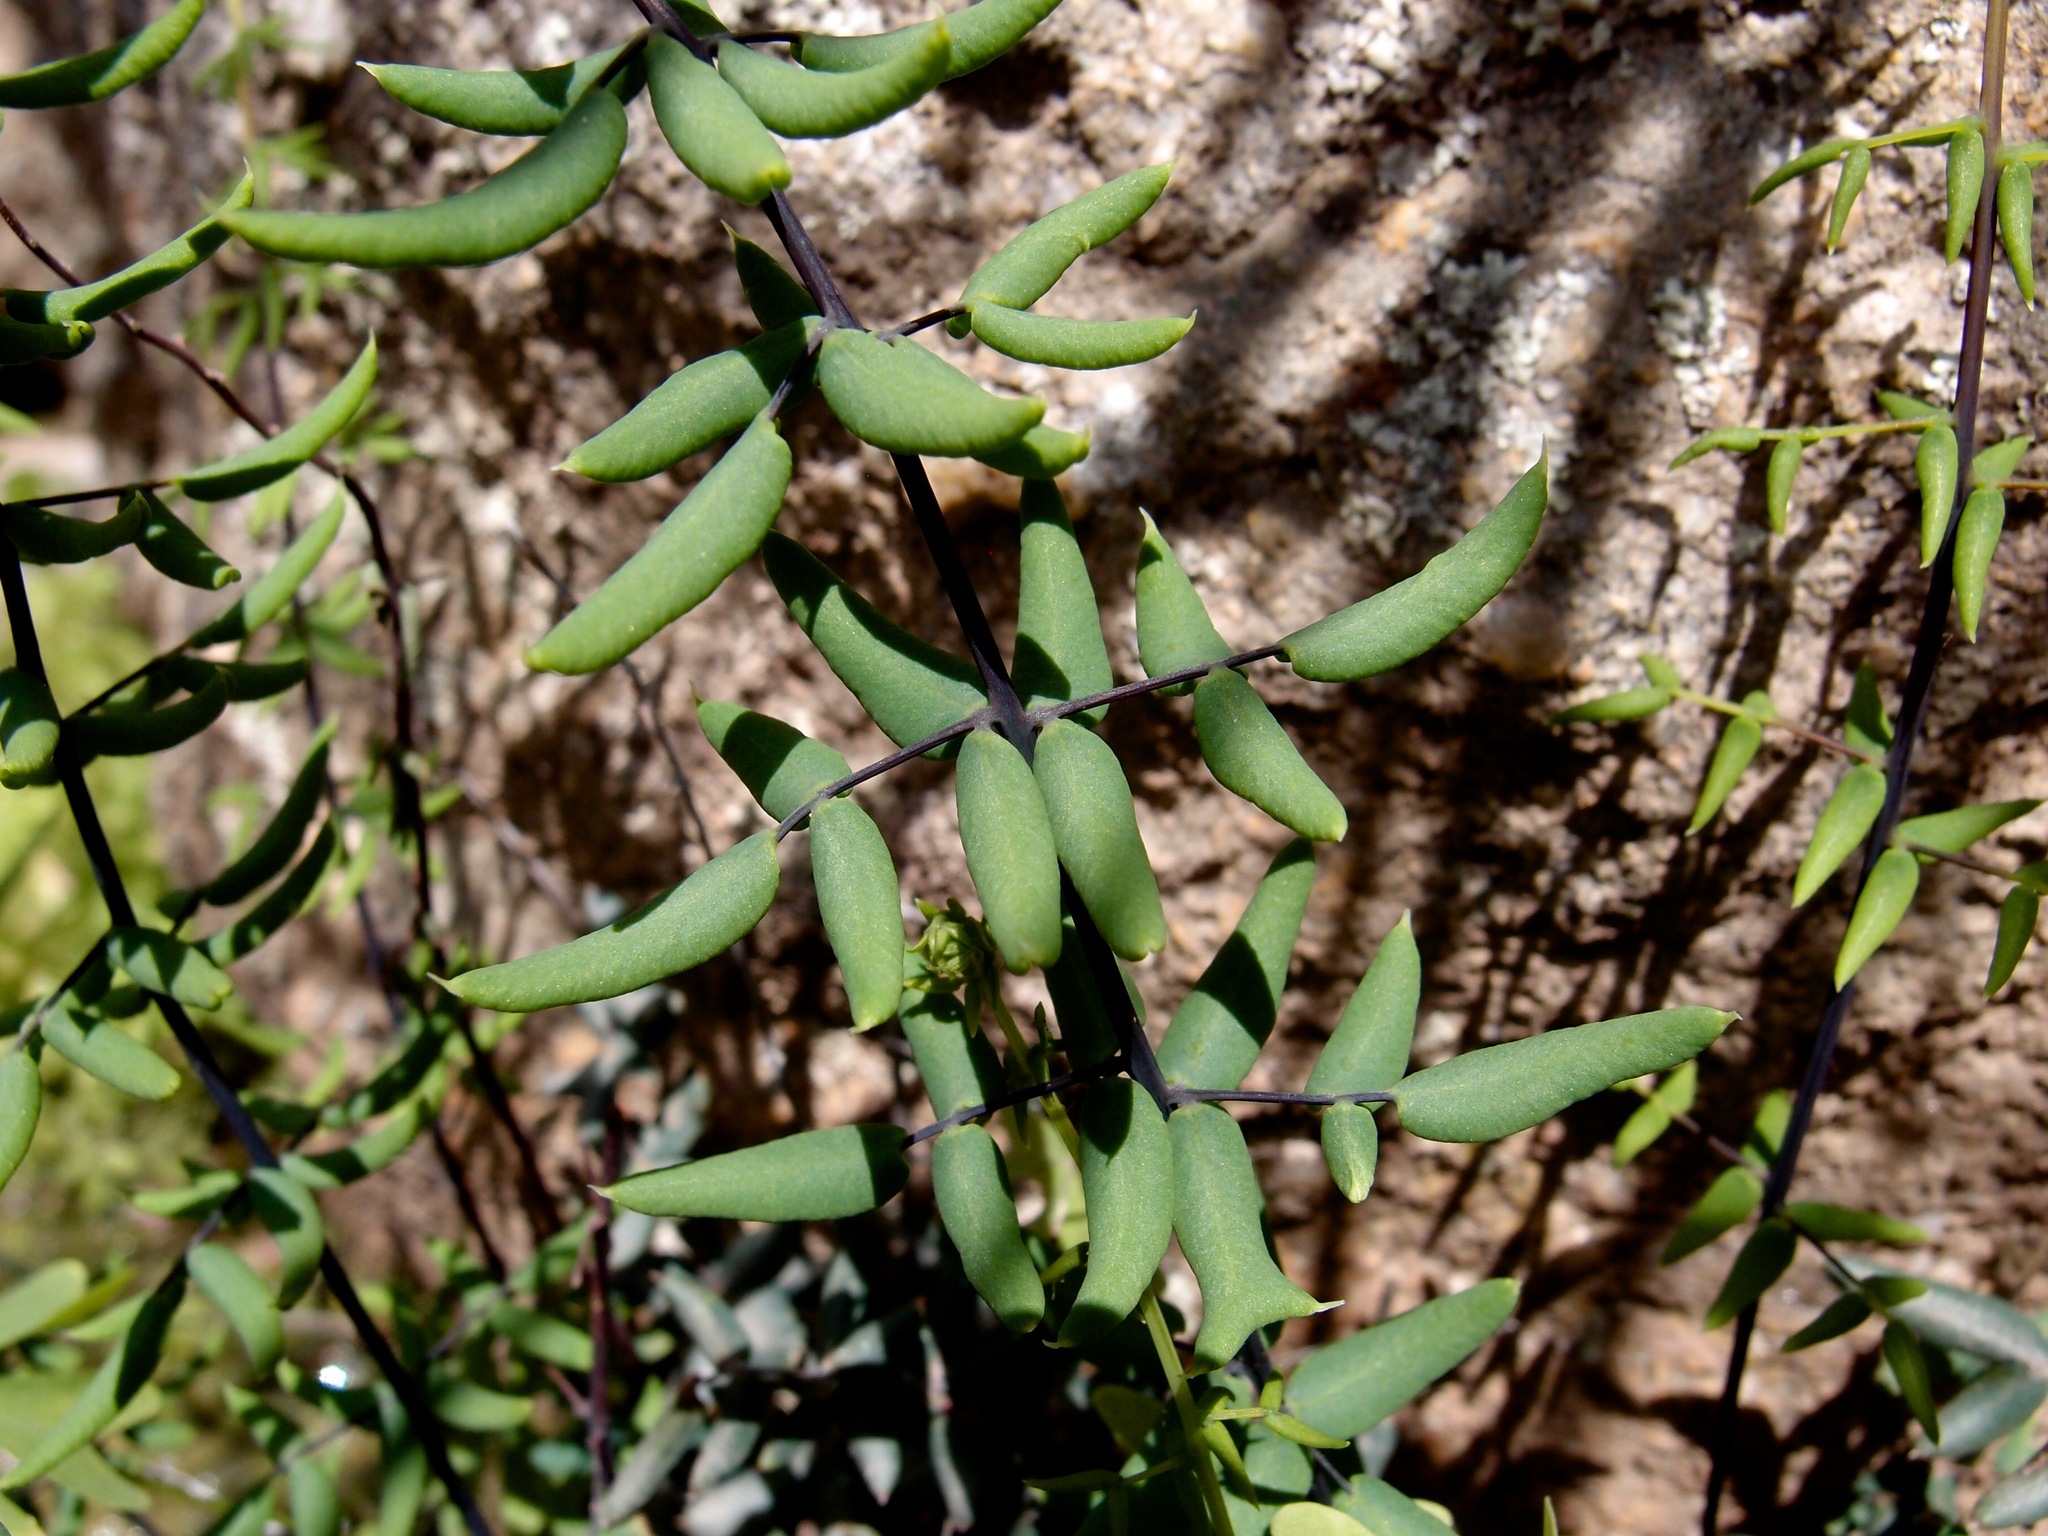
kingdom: Plantae
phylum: Tracheophyta
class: Polypodiopsida
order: Polypodiales
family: Pteridaceae
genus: Pellaea
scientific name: Pellaea wrightiana
